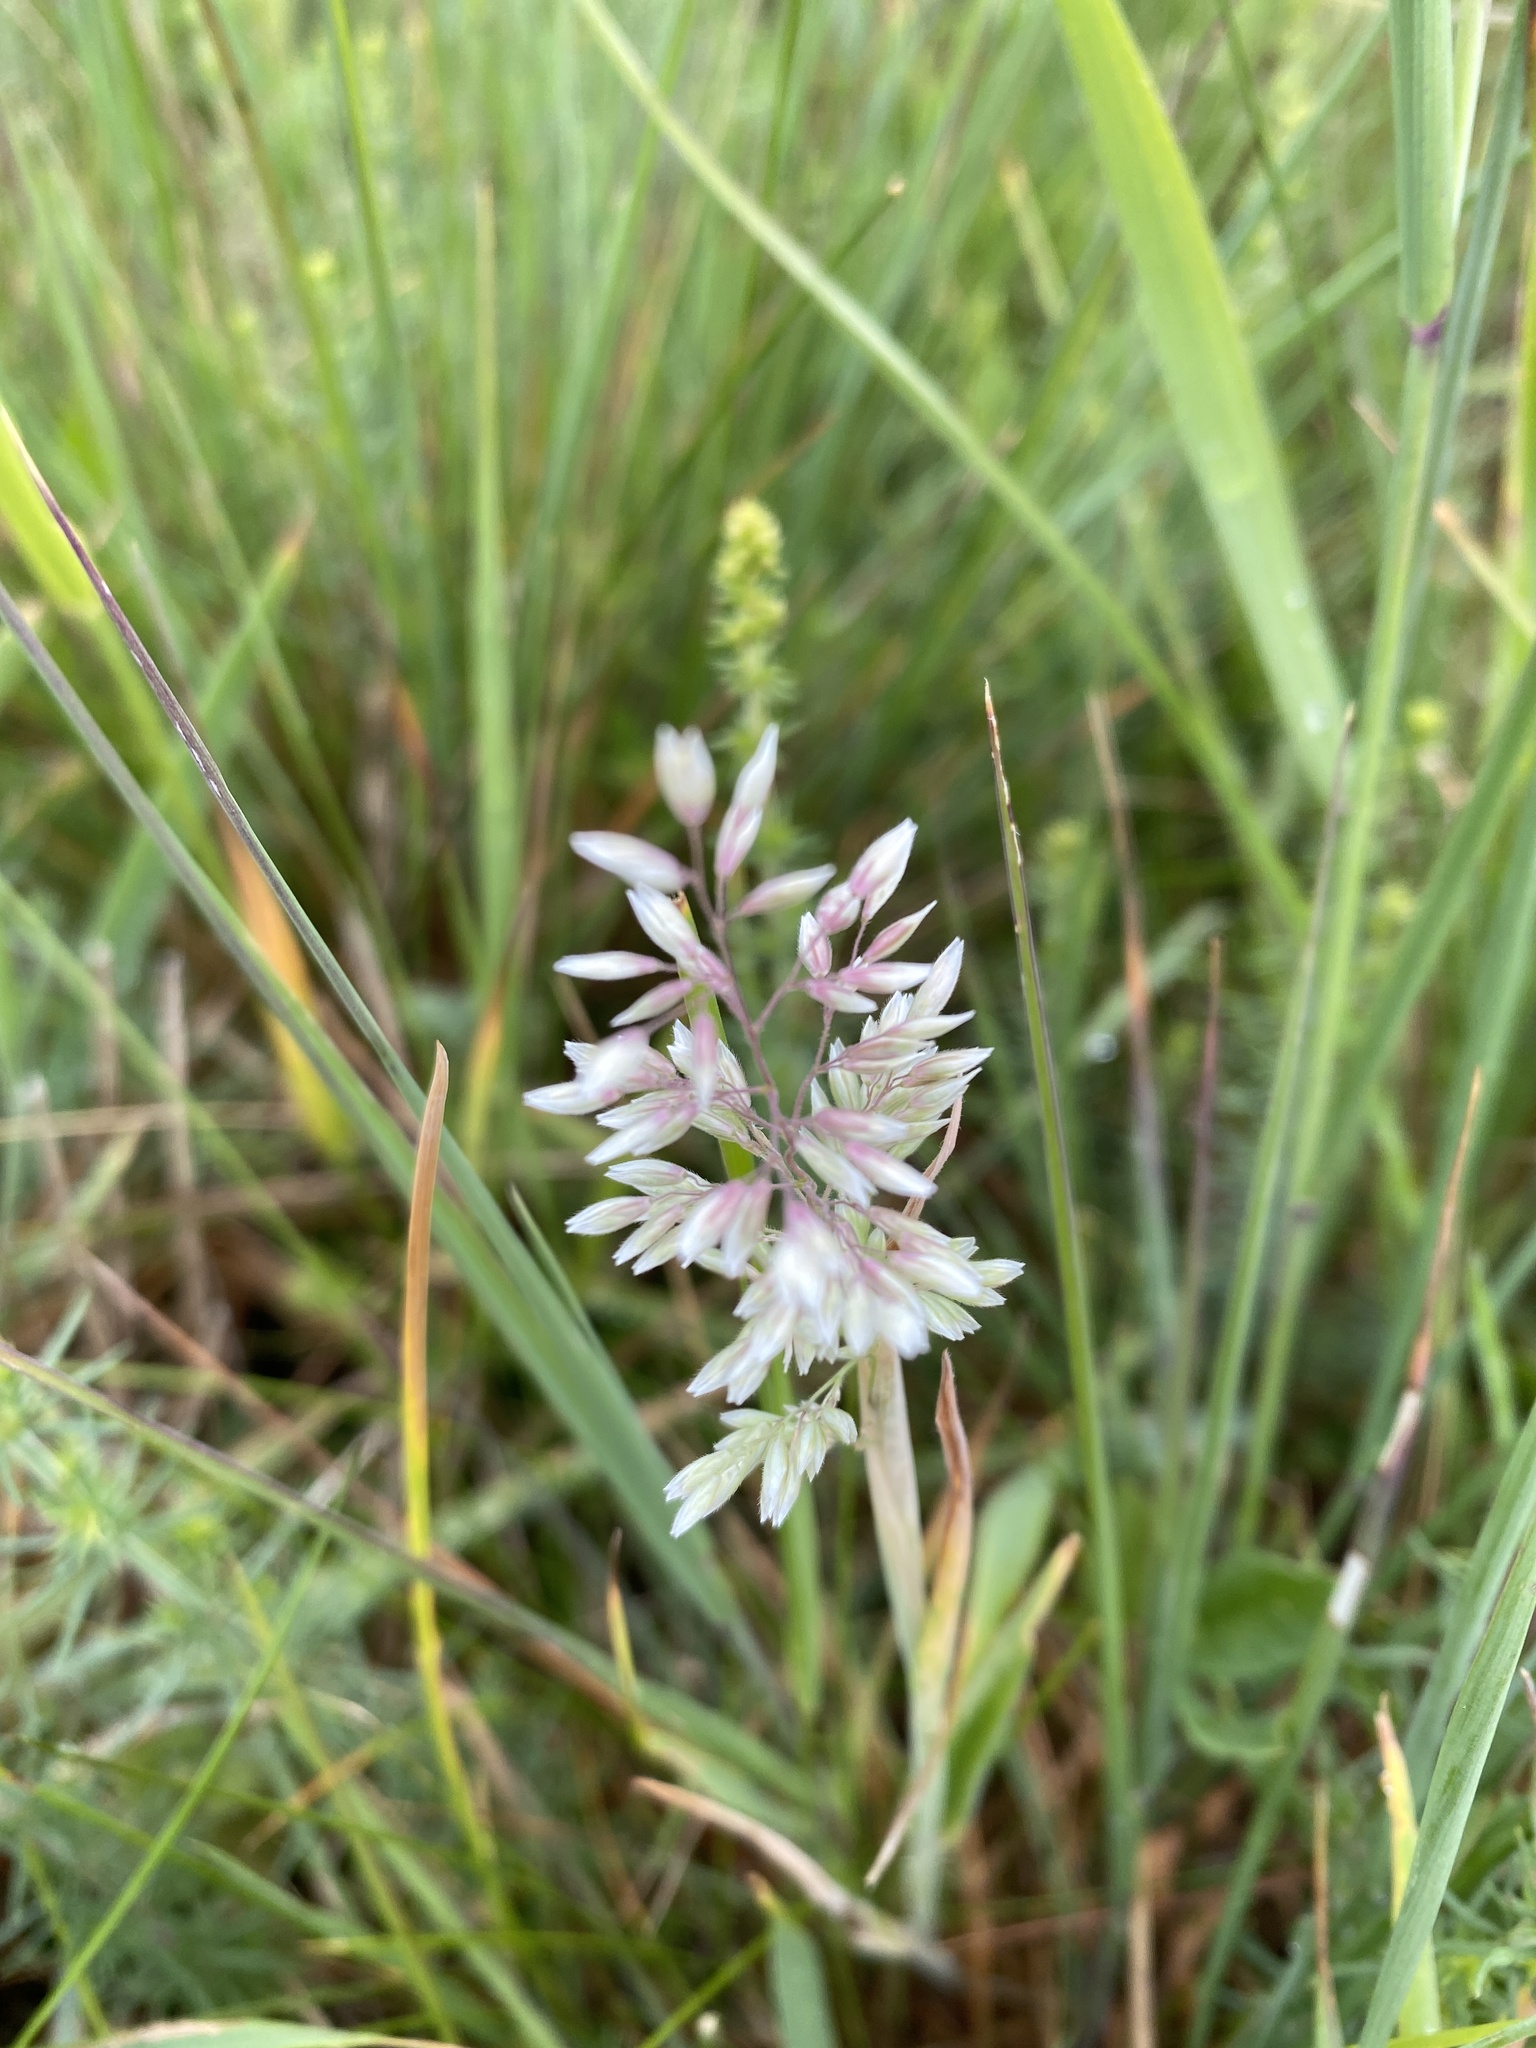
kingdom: Plantae
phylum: Tracheophyta
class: Liliopsida
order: Poales
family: Poaceae
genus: Holcus
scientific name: Holcus lanatus
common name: Yorkshire-fog
